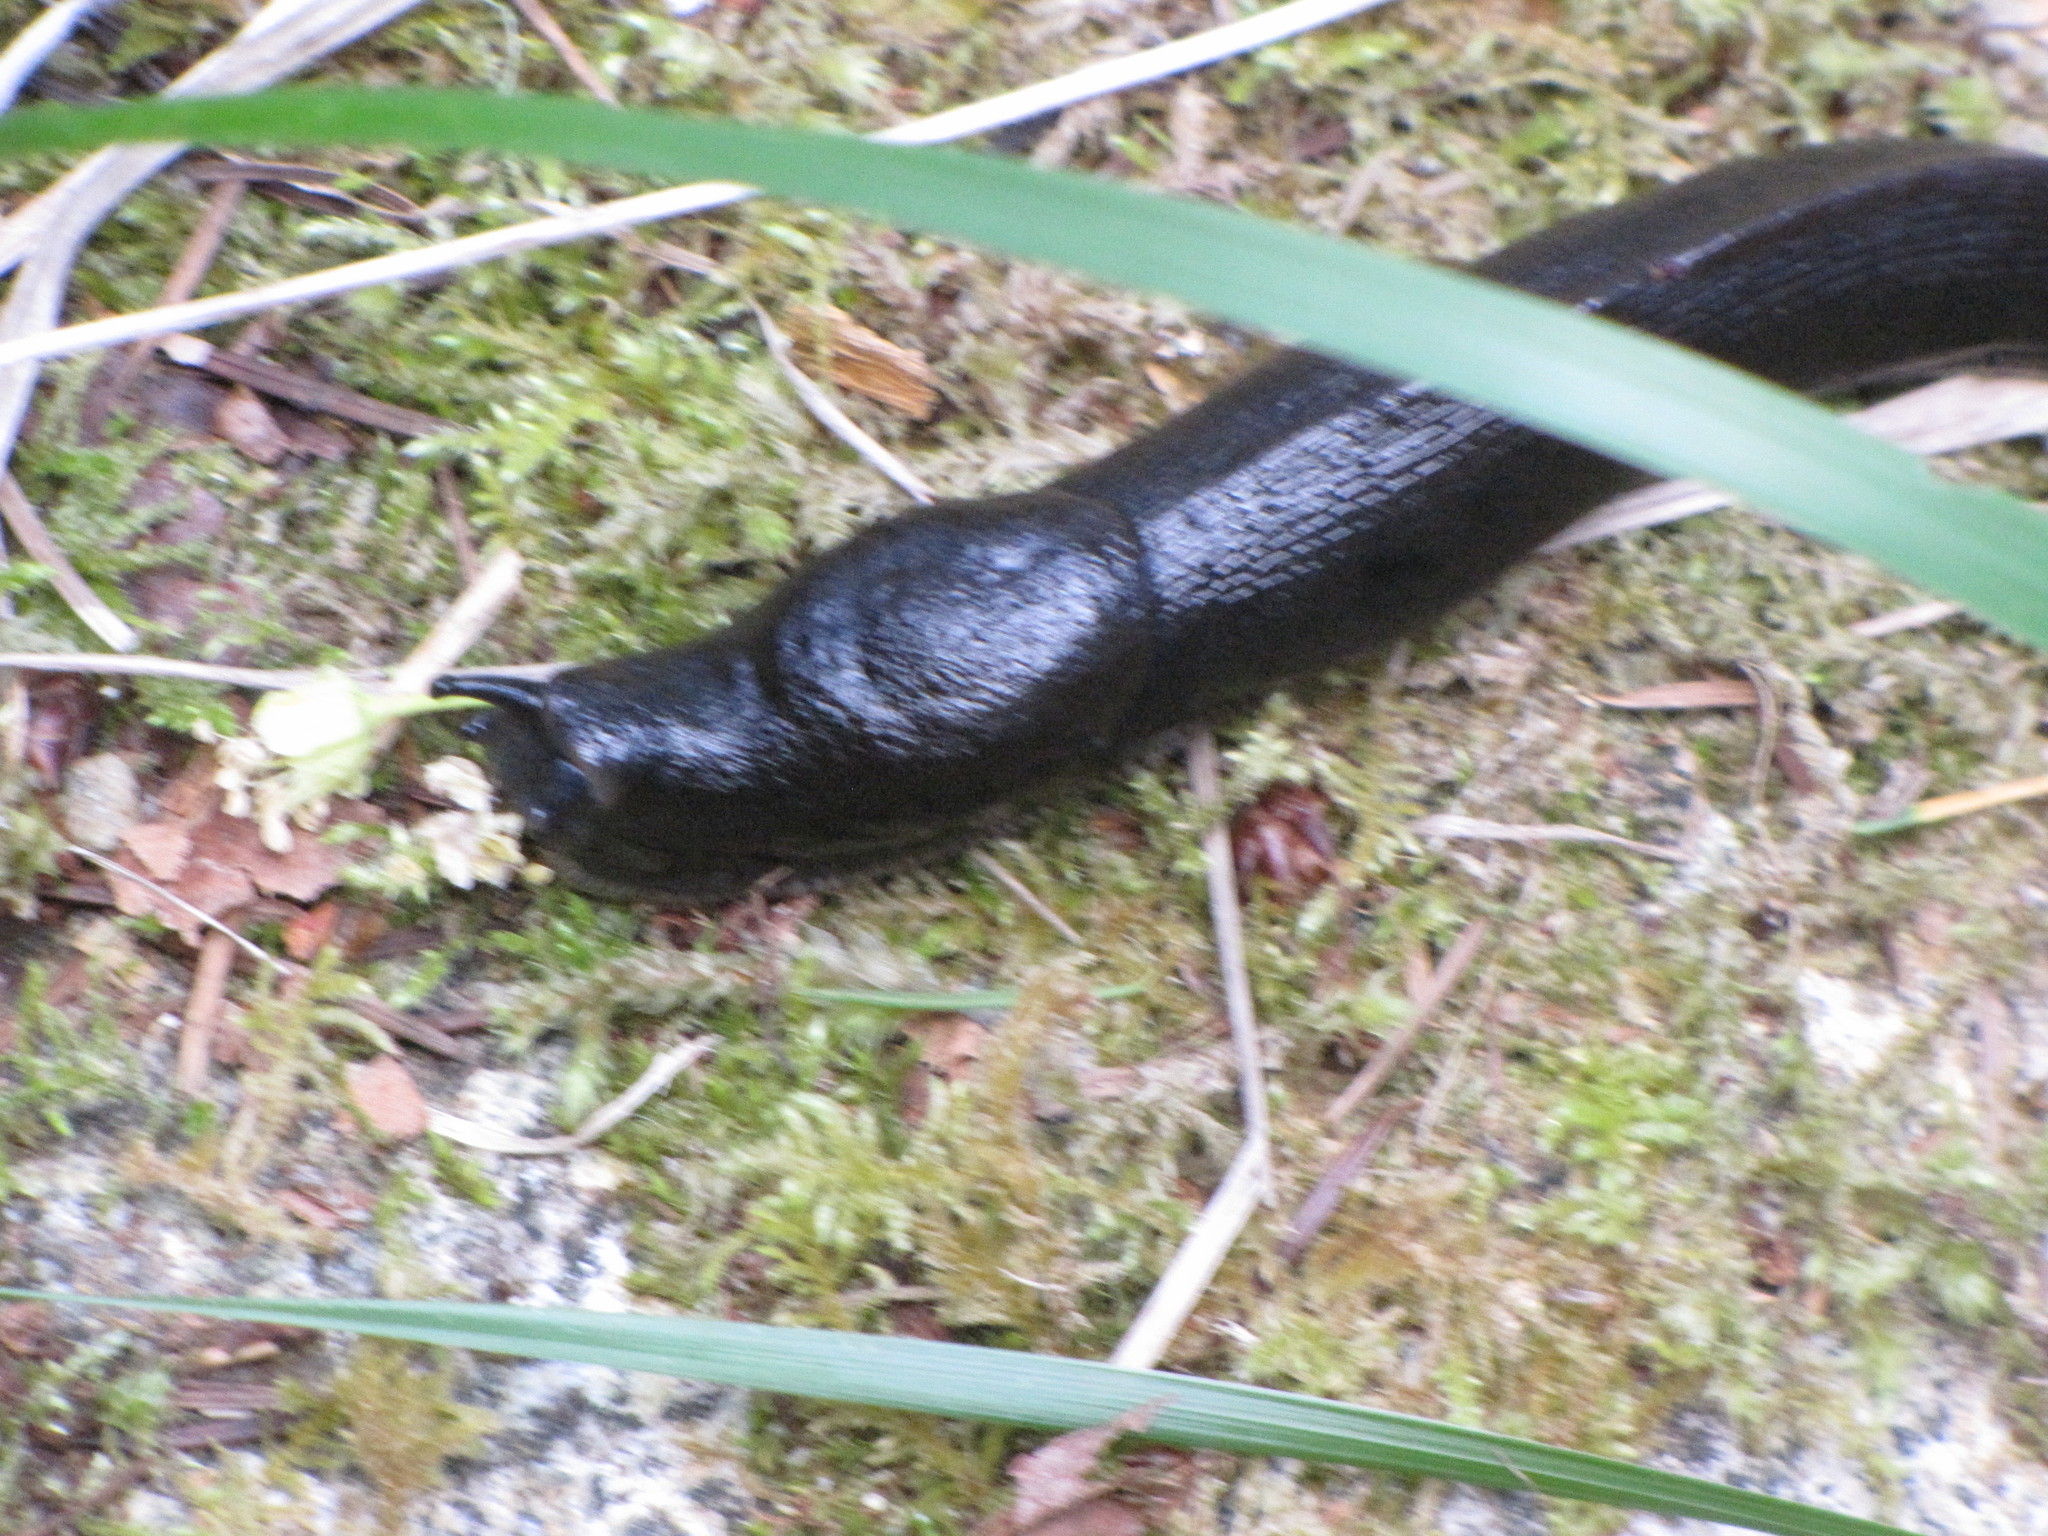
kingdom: Animalia
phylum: Mollusca
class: Gastropoda
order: Stylommatophora
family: Ariolimacidae
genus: Ariolimax
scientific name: Ariolimax columbianus
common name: Pacific banana slug
